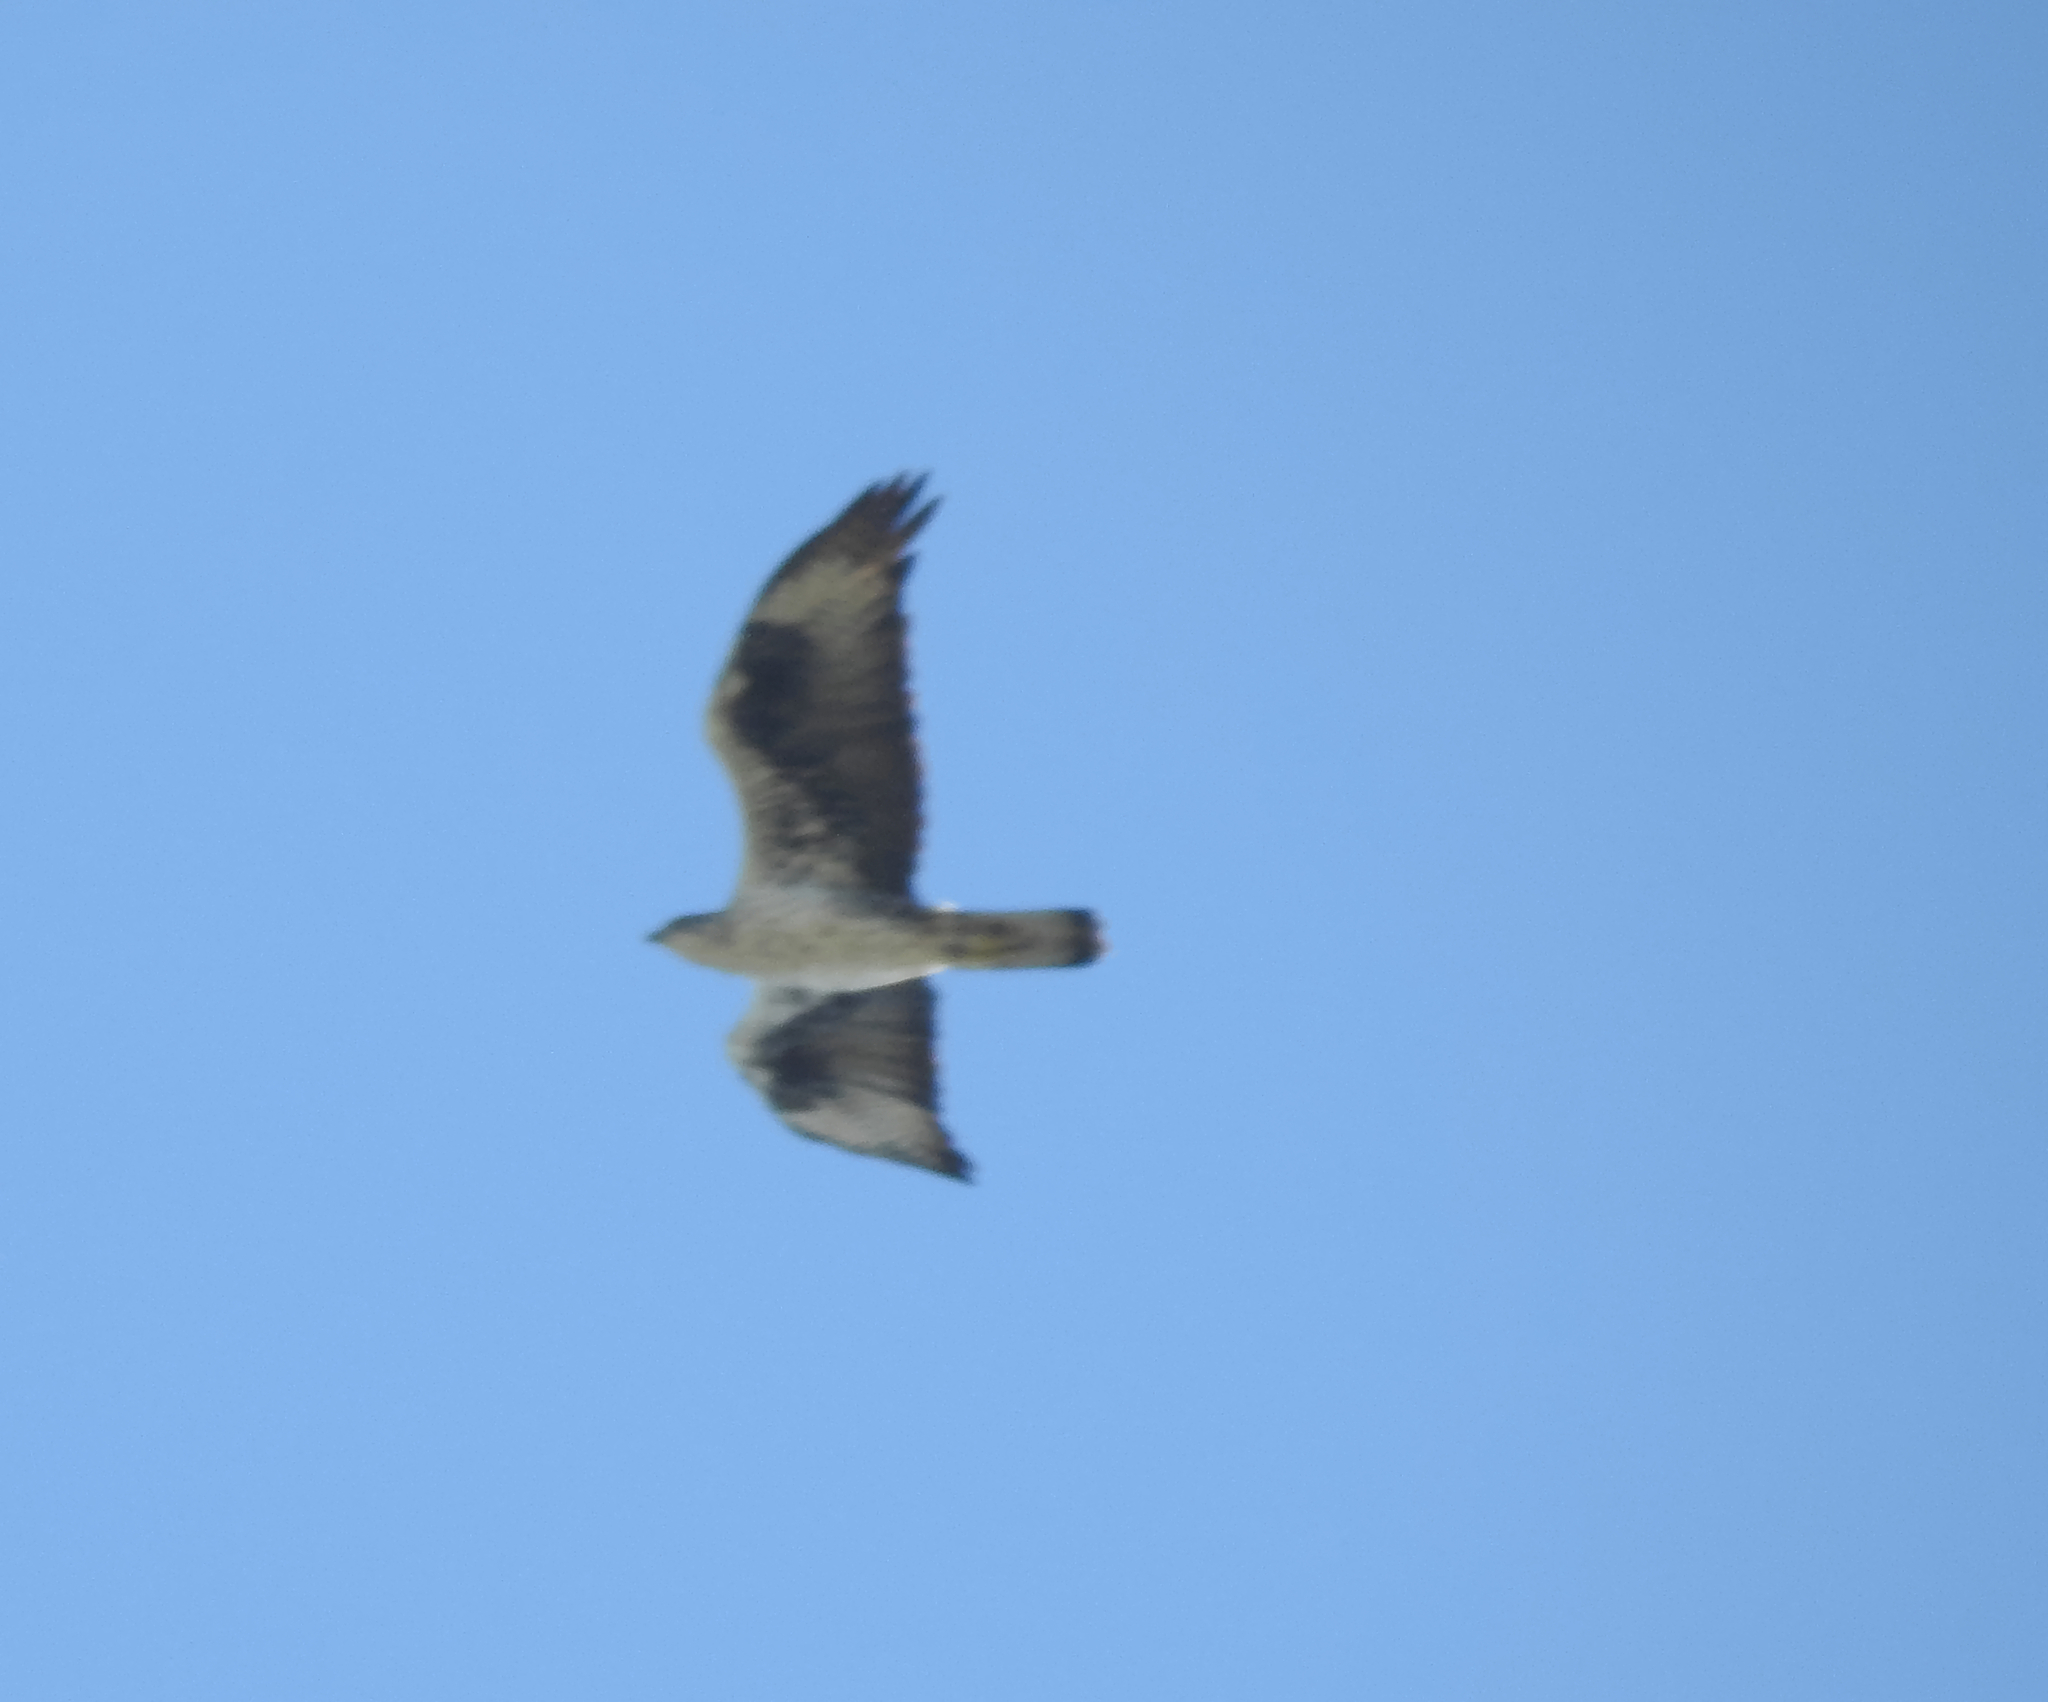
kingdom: Animalia
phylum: Chordata
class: Aves
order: Accipitriformes
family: Accipitridae
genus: Aquila
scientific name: Aquila fasciata
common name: Bonelli's eagle
